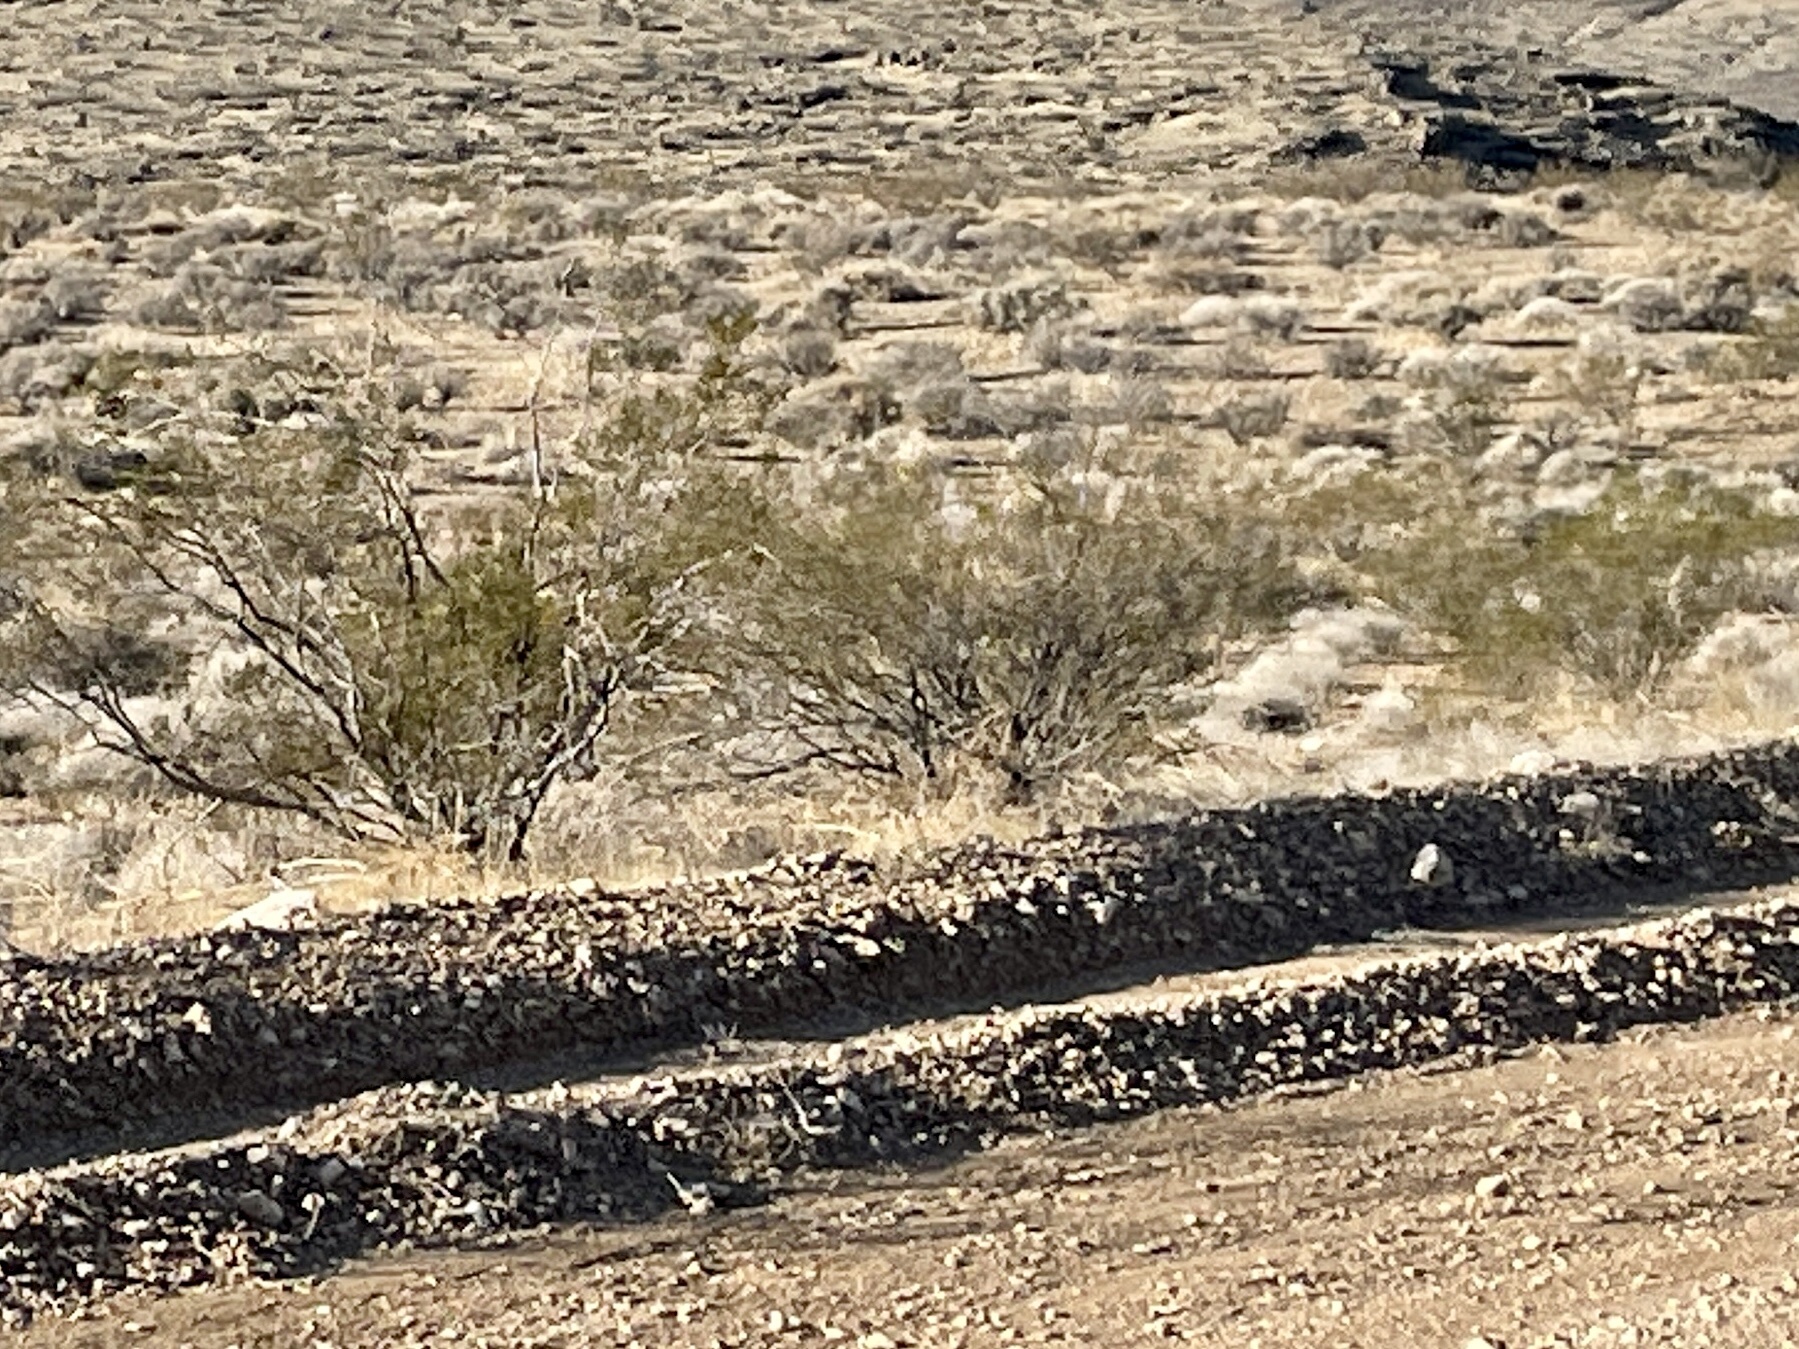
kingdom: Plantae
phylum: Tracheophyta
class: Magnoliopsida
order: Zygophyllales
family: Zygophyllaceae
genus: Larrea
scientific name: Larrea tridentata
